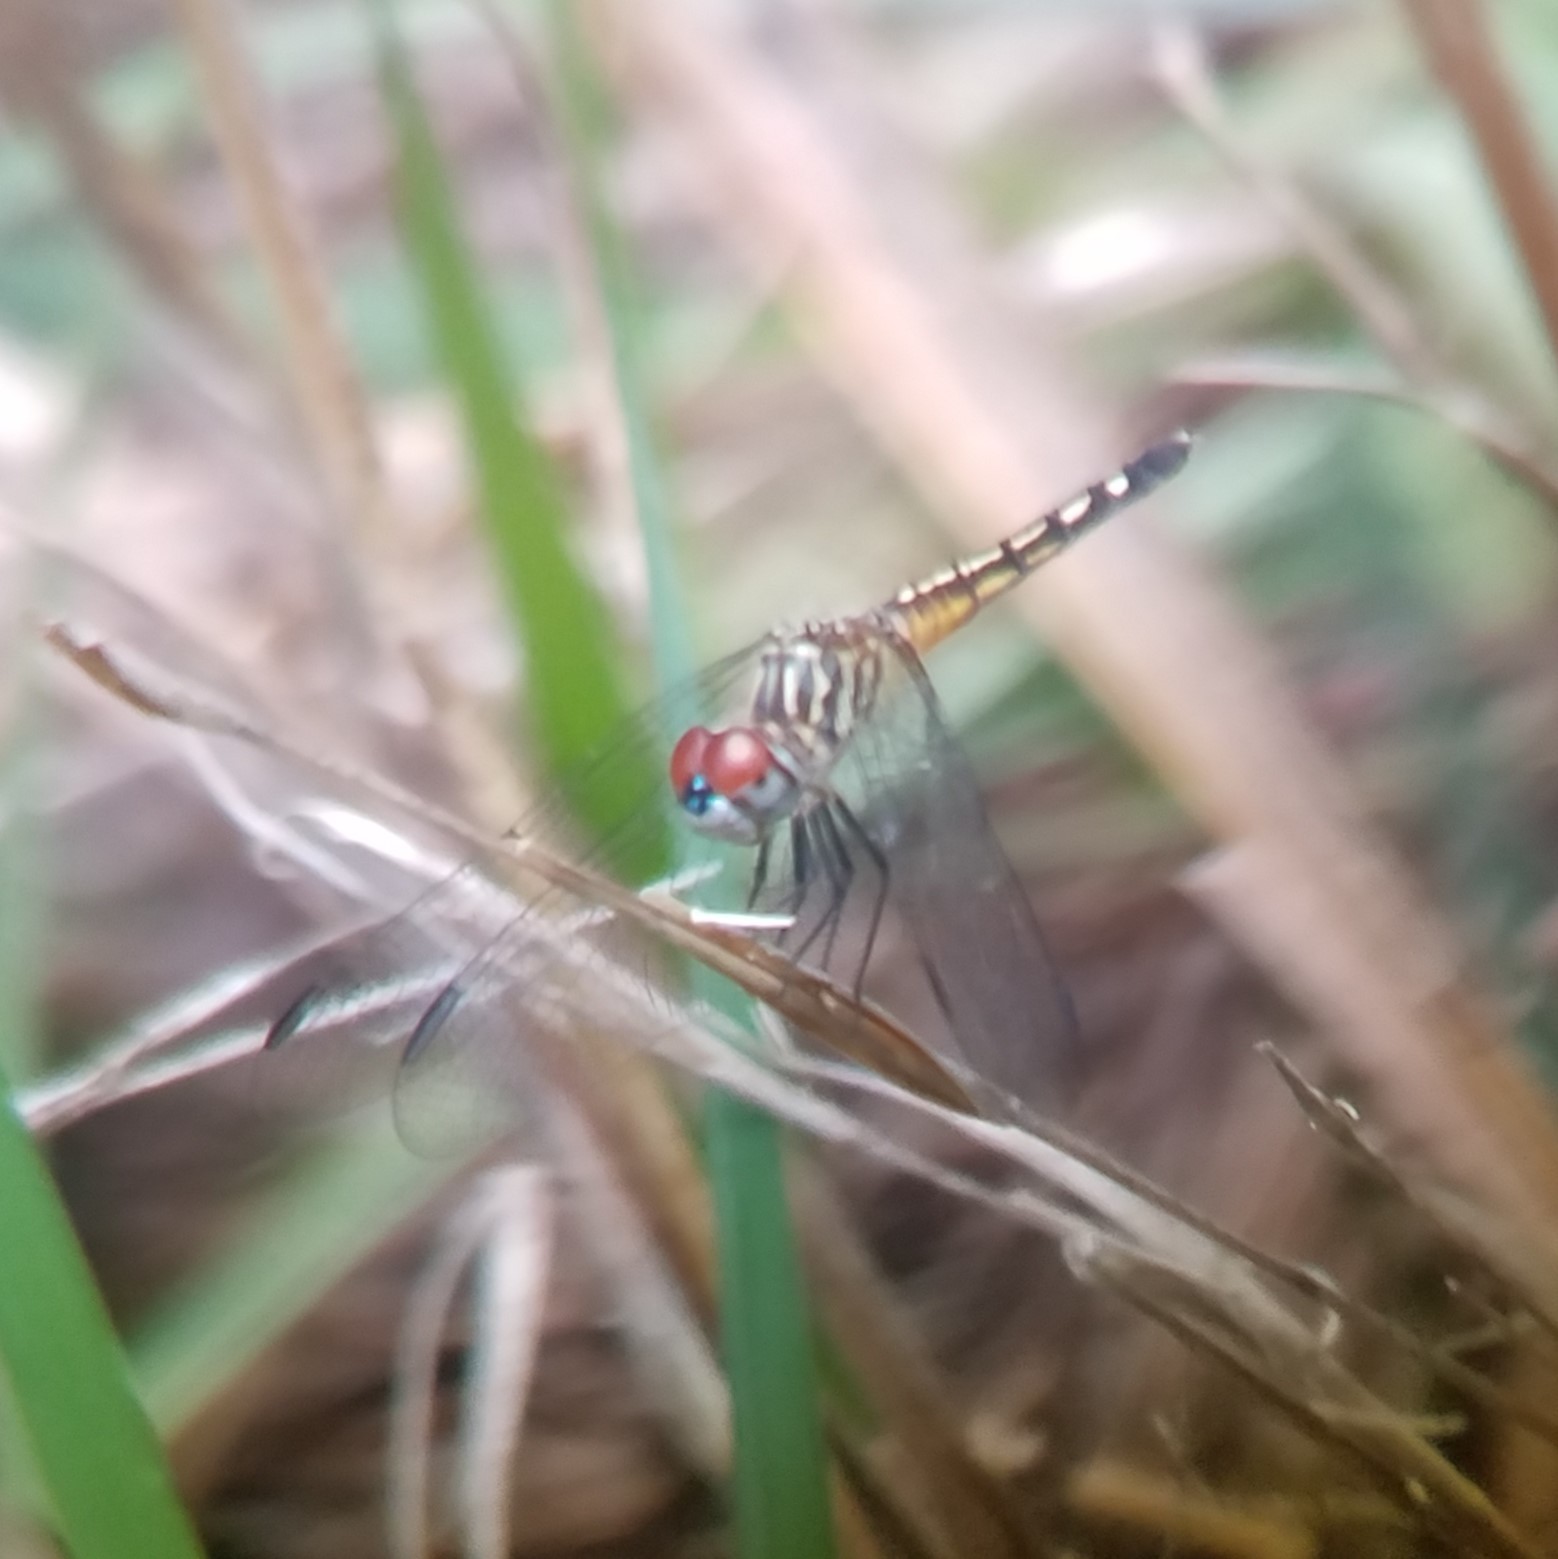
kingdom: Animalia
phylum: Arthropoda
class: Insecta
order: Odonata
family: Libellulidae
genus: Pachydiplax
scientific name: Pachydiplax longipennis
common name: Blue dasher
